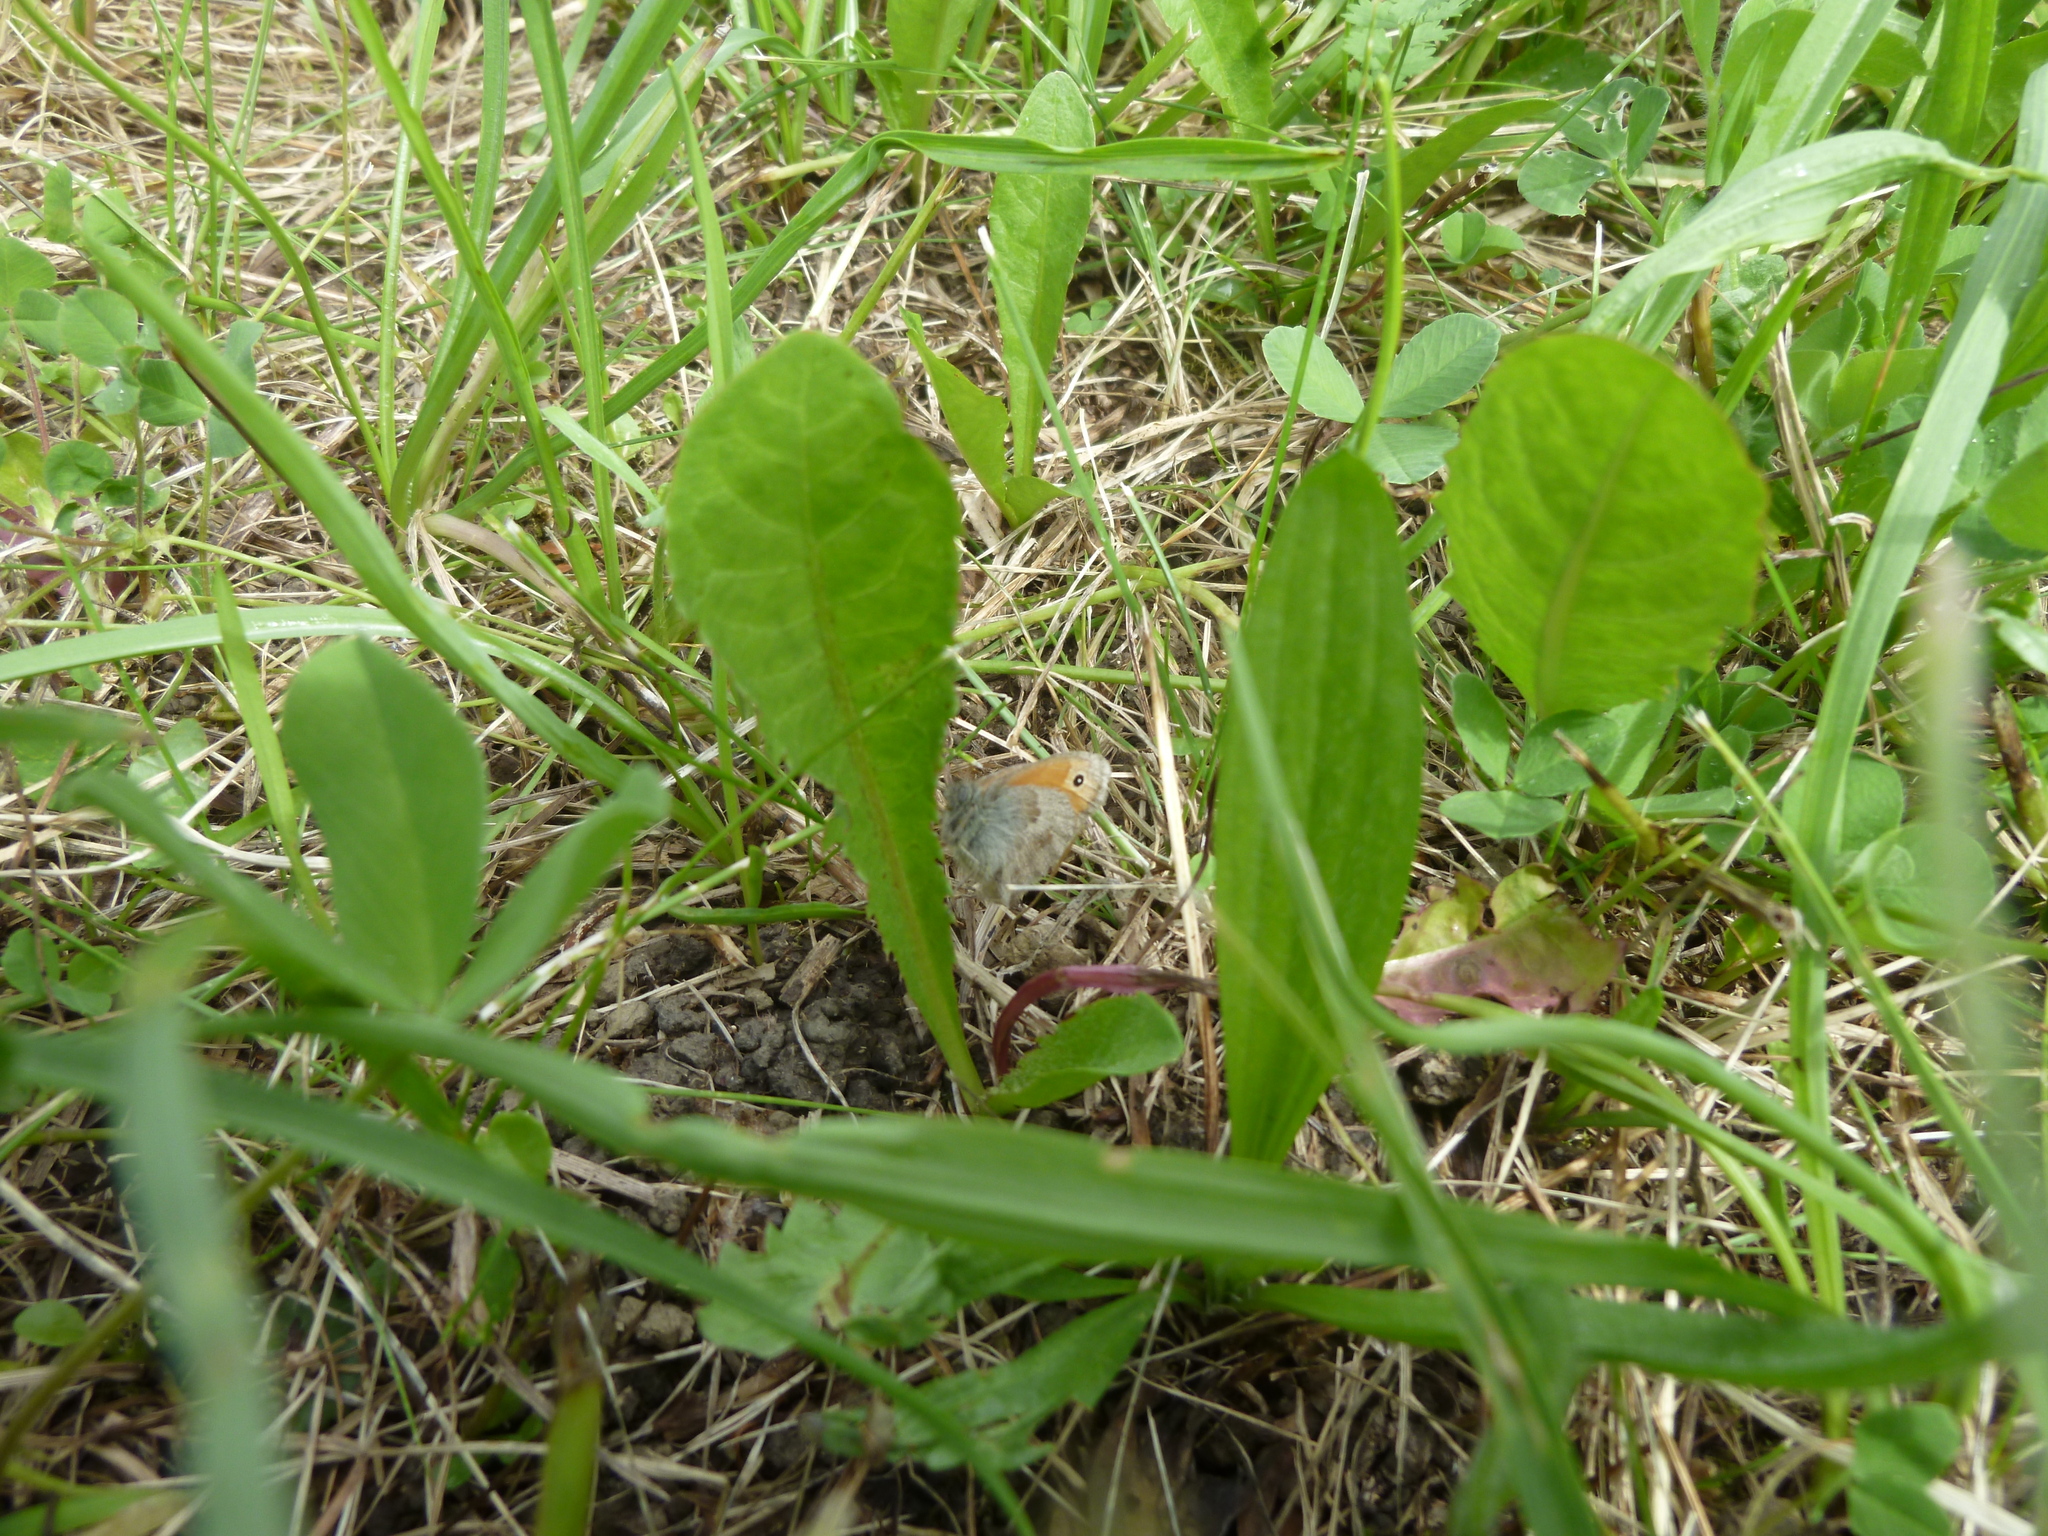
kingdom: Animalia
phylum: Arthropoda
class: Insecta
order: Lepidoptera
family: Nymphalidae
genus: Coenonympha
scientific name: Coenonympha pamphilus
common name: Small heath
